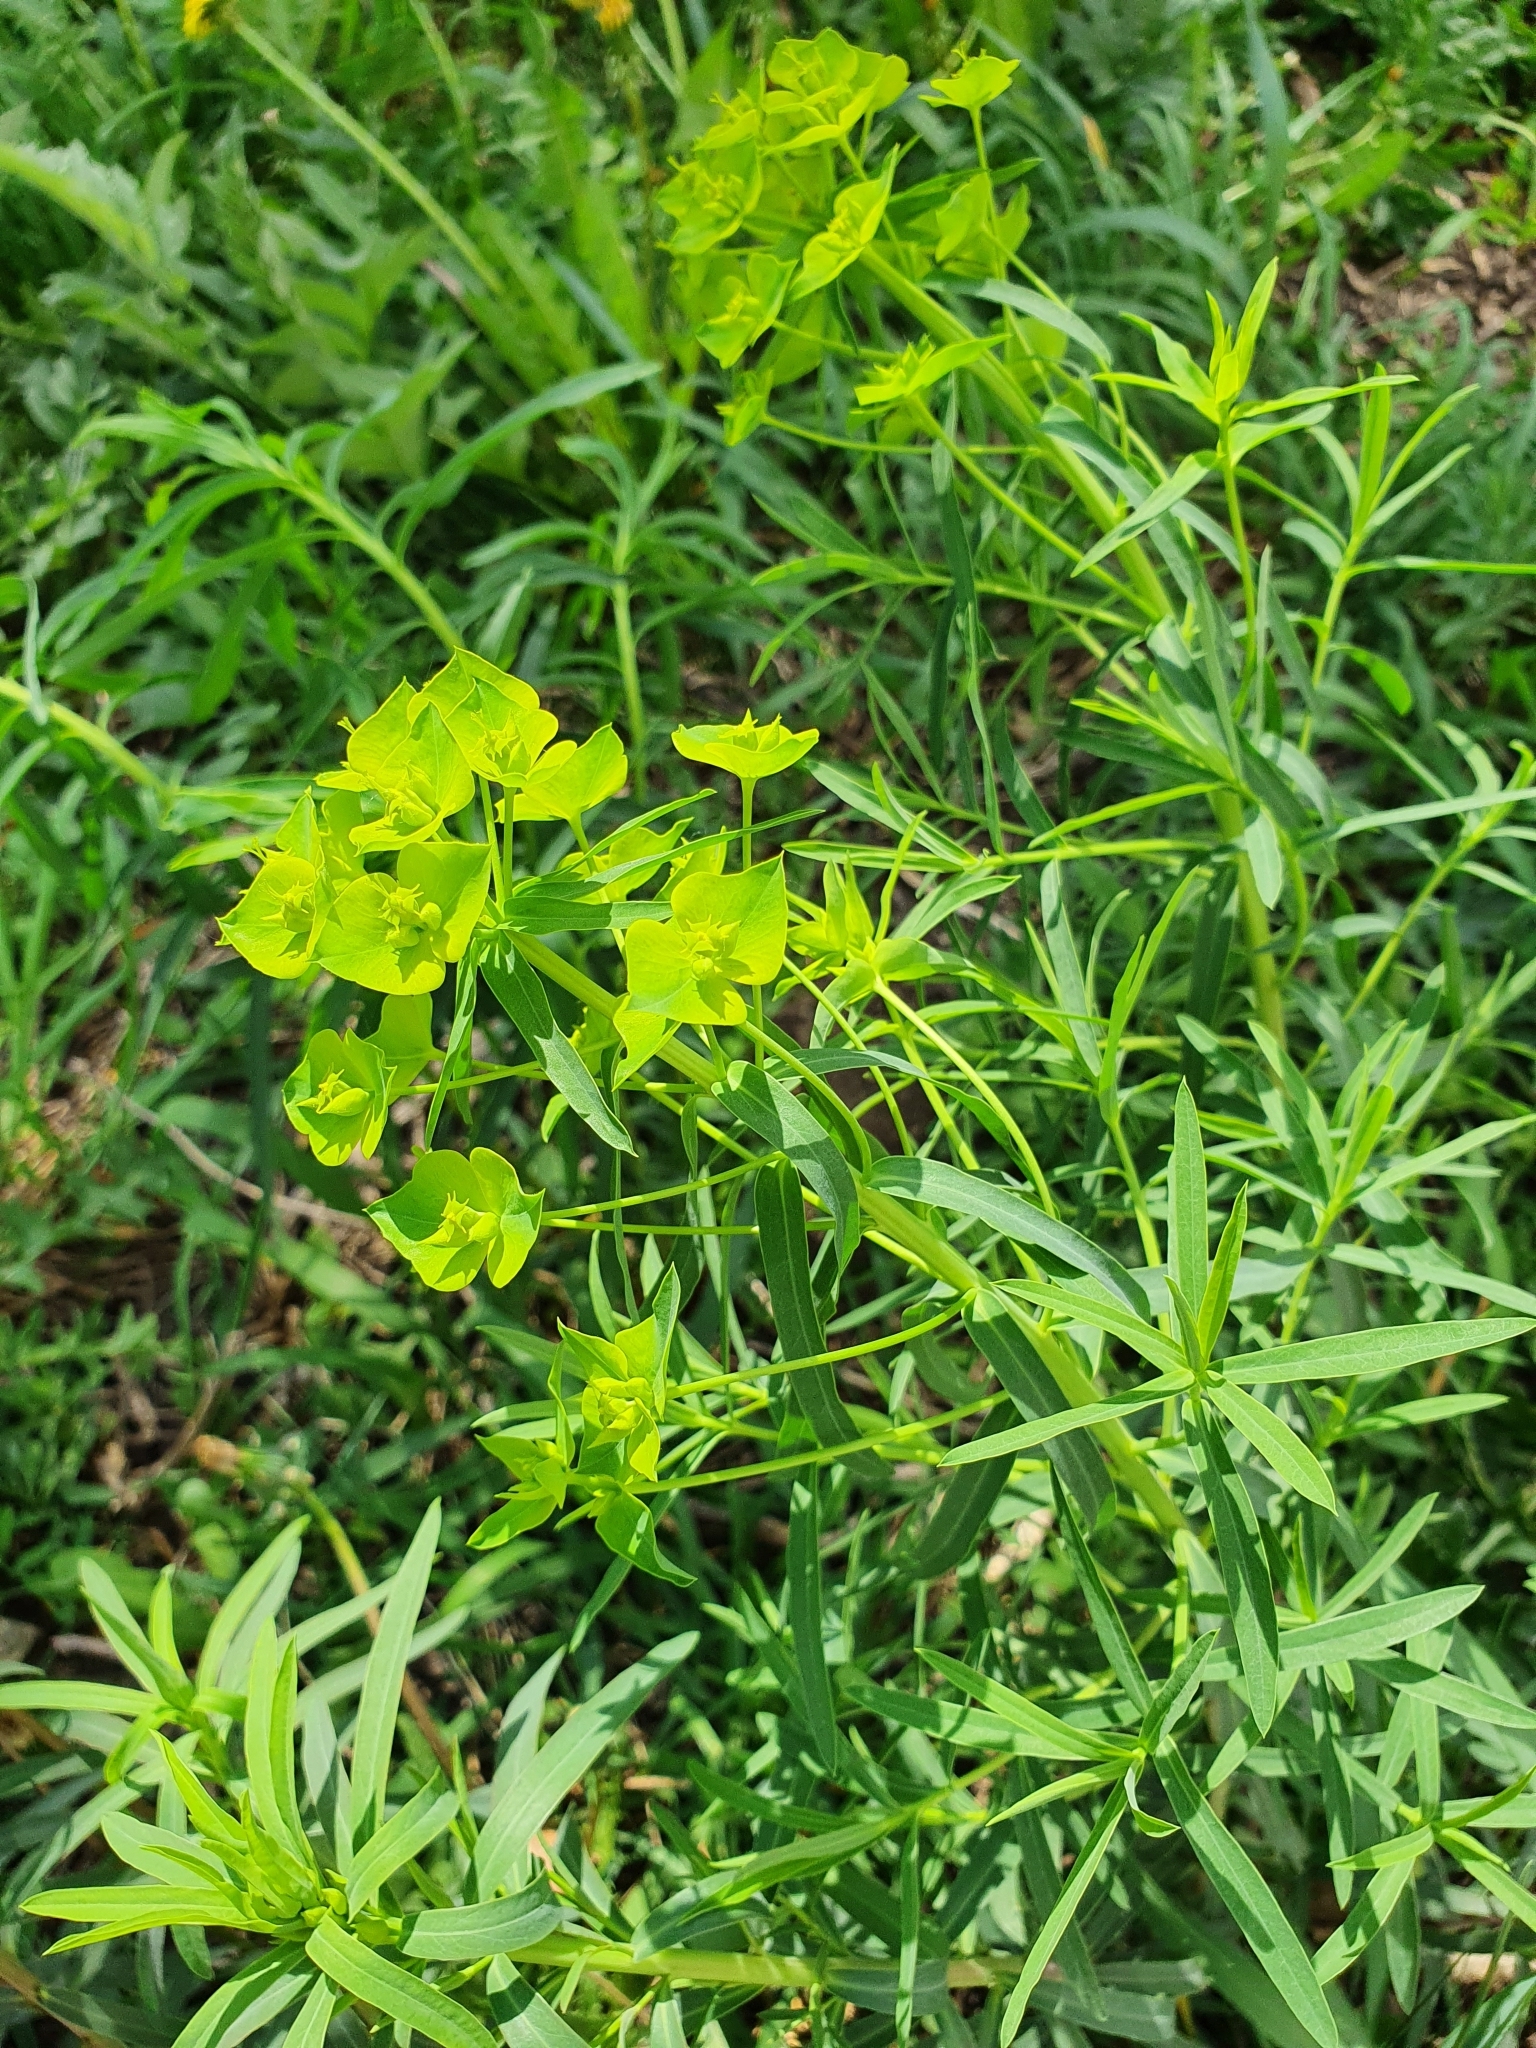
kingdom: Plantae
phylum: Tracheophyta
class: Magnoliopsida
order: Malpighiales
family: Euphorbiaceae
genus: Euphorbia
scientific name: Euphorbia virgata
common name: Leafy spurge
